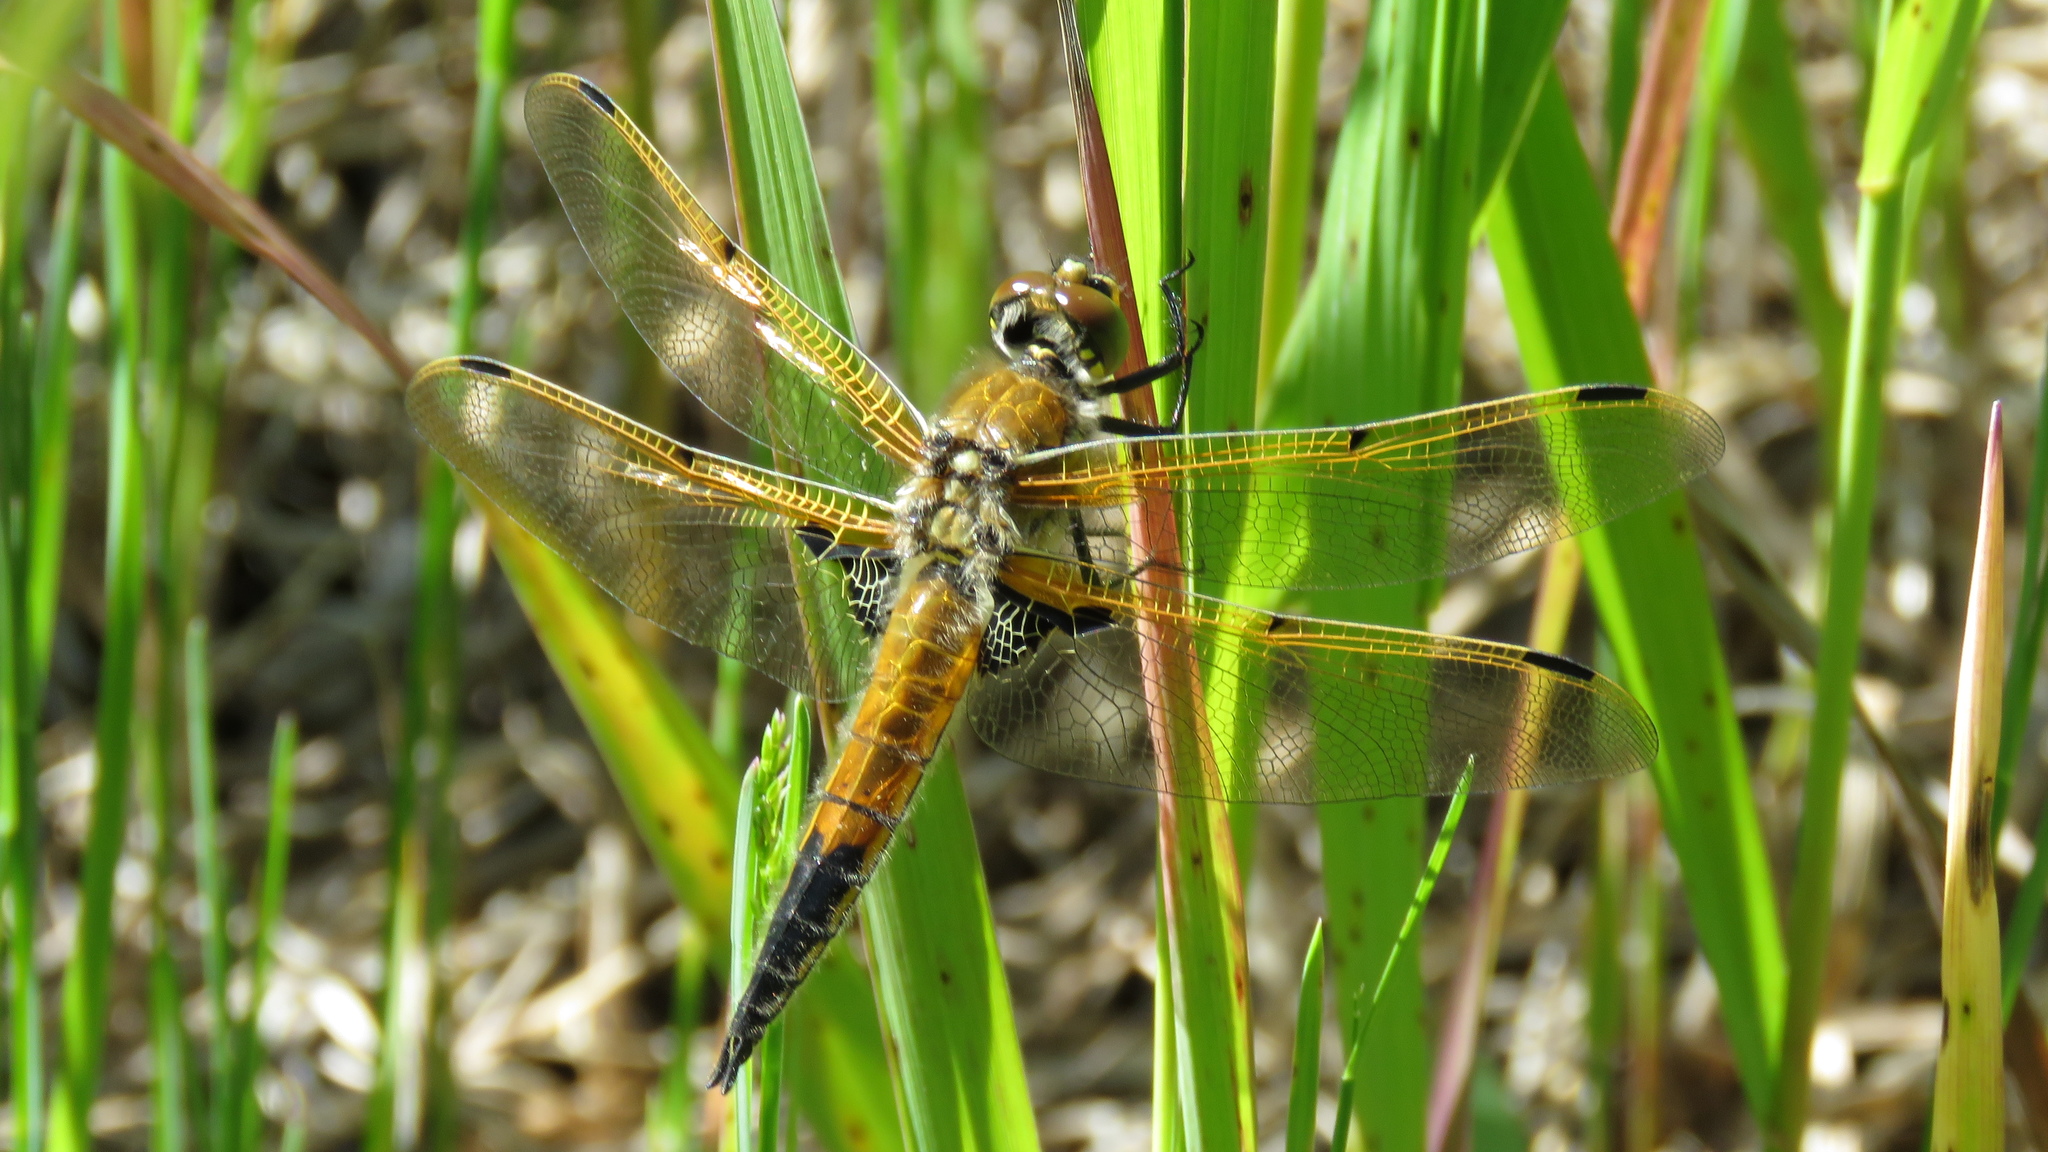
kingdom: Animalia
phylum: Arthropoda
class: Insecta
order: Odonata
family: Libellulidae
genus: Libellula
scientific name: Libellula quadrimaculata
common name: Four-spotted chaser
